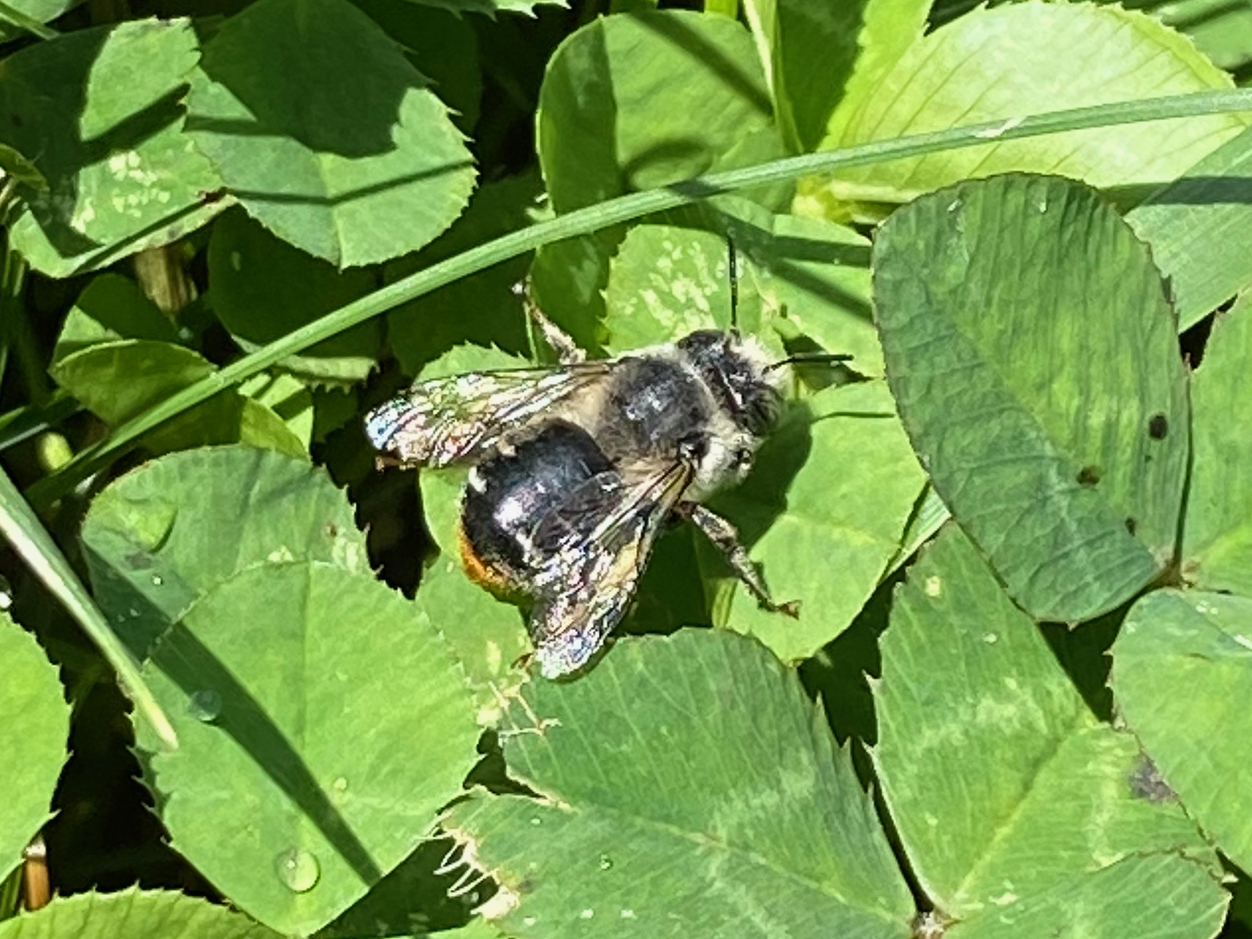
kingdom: Animalia
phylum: Arthropoda
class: Insecta
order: Hymenoptera
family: Apidae
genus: Anthophora
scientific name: Anthophora terminalis
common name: Orange-tipped wood-digger bee
